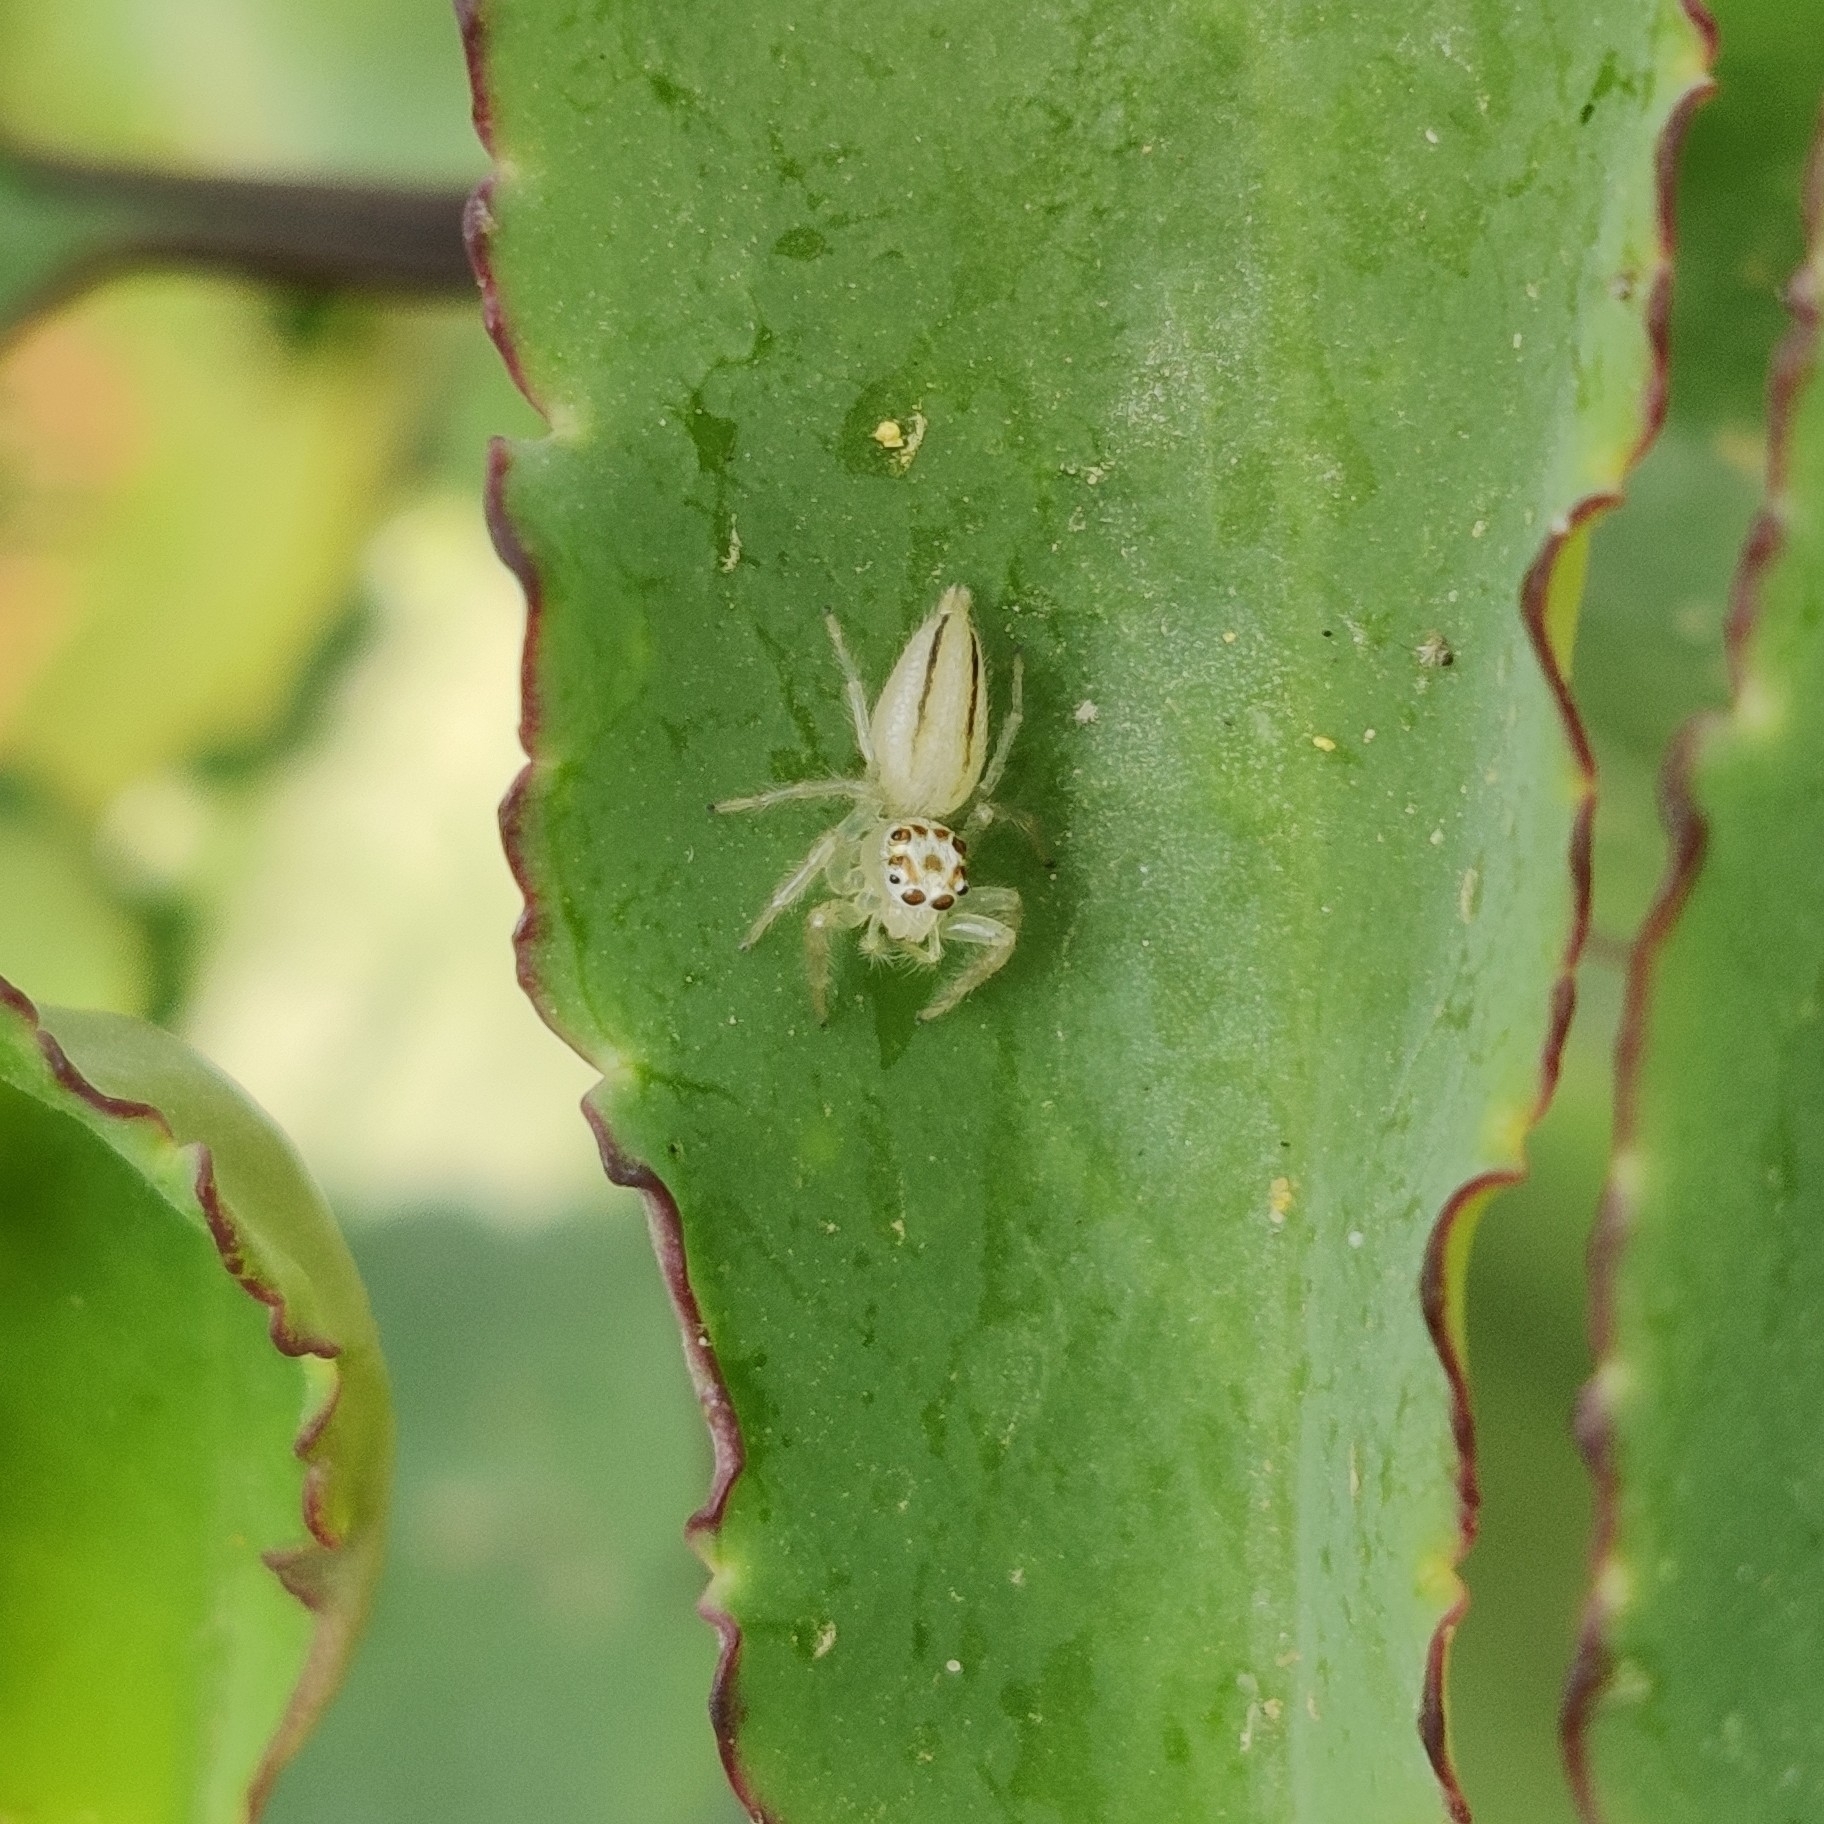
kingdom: Animalia
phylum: Arthropoda
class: Arachnida
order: Araneae
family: Salticidae
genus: Telamonia
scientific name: Telamonia dimidiata
